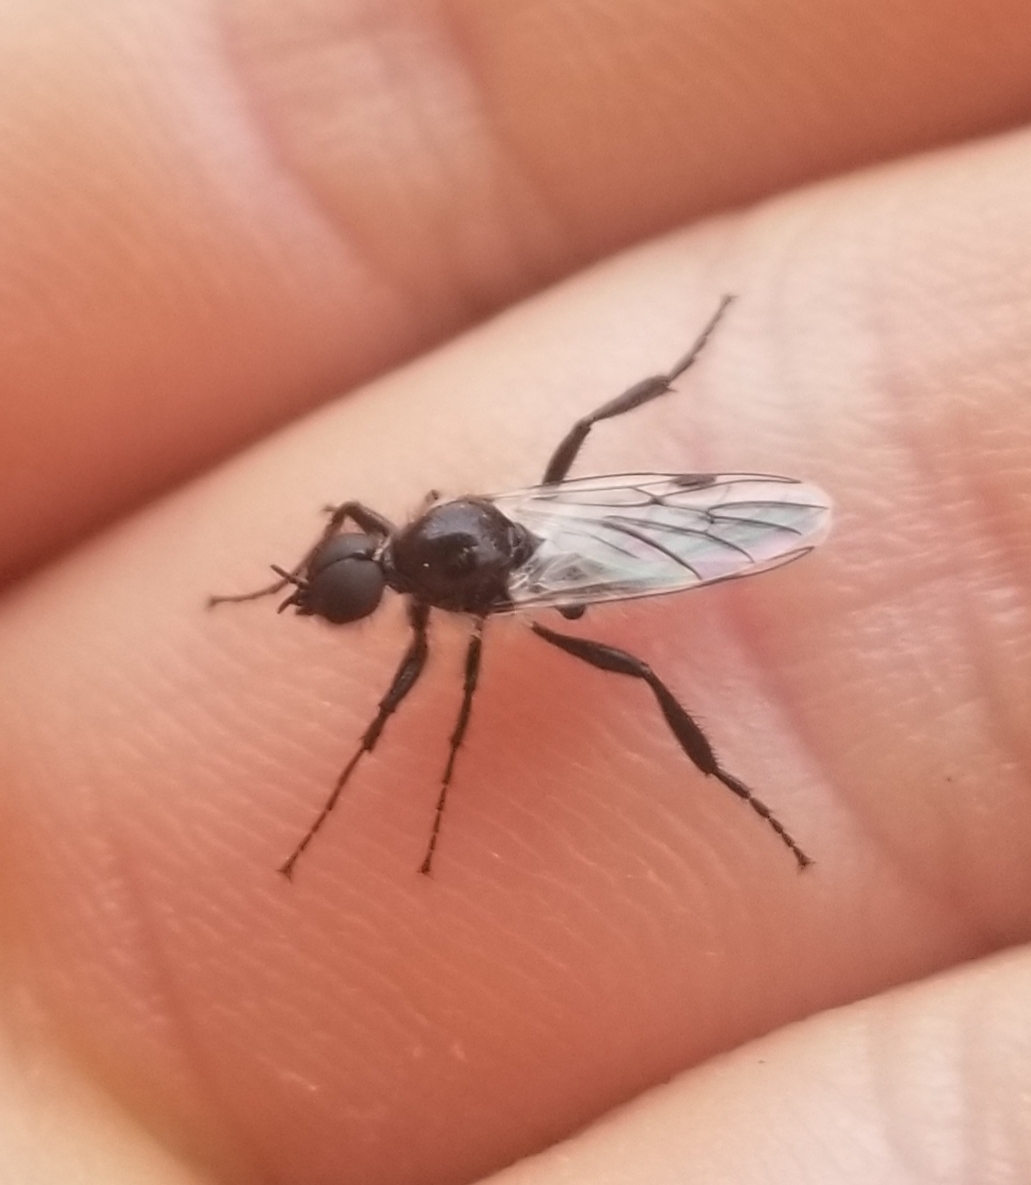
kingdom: Animalia
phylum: Arthropoda
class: Insecta
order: Diptera
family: Bibionidae
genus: Bibio
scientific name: Bibio albipennis
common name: White-winged march fly
